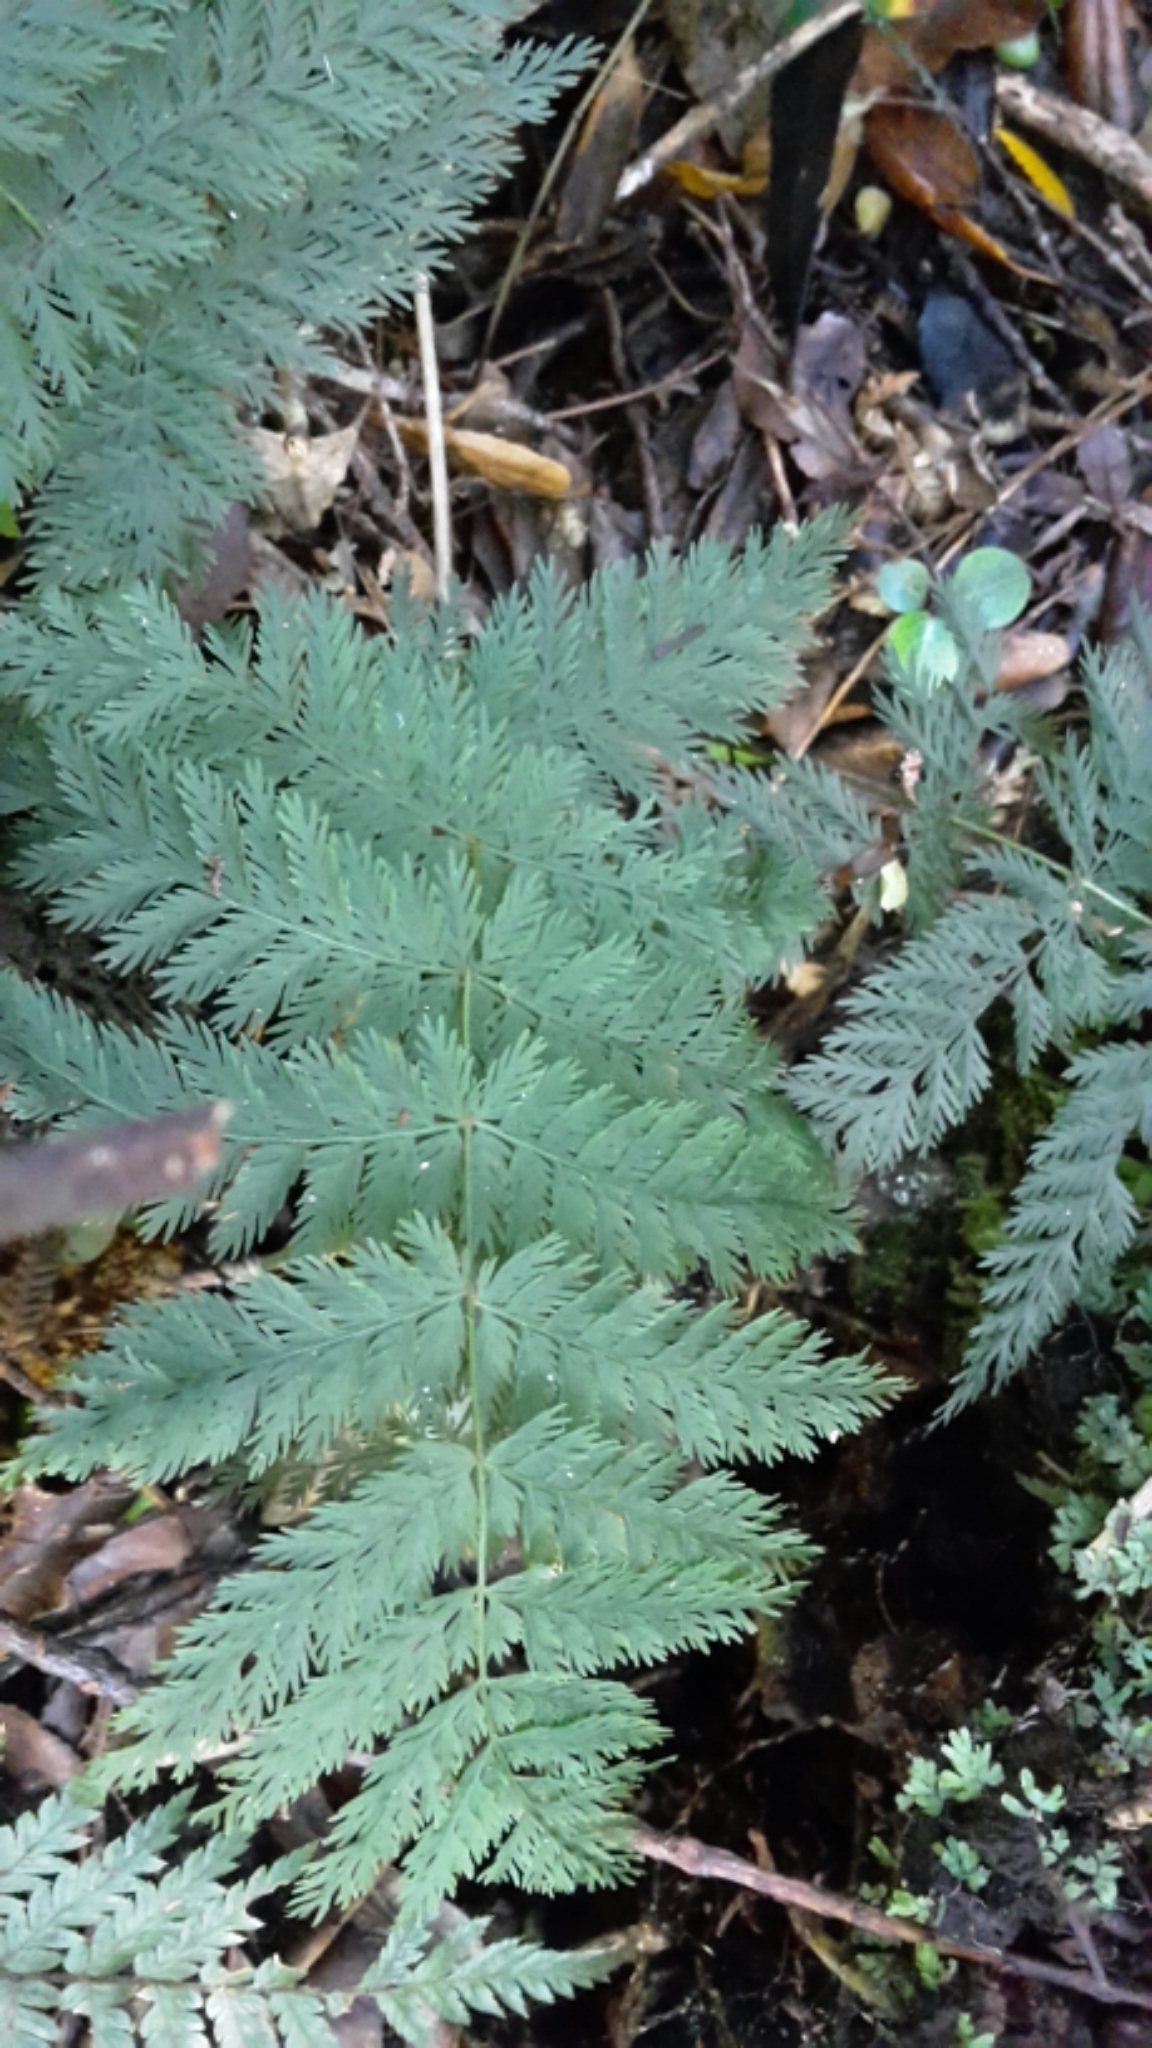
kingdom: Plantae
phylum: Tracheophyta
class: Polypodiopsida
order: Osmundales
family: Osmundaceae
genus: Leptopteris
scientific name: Leptopteris hymenophylloides
